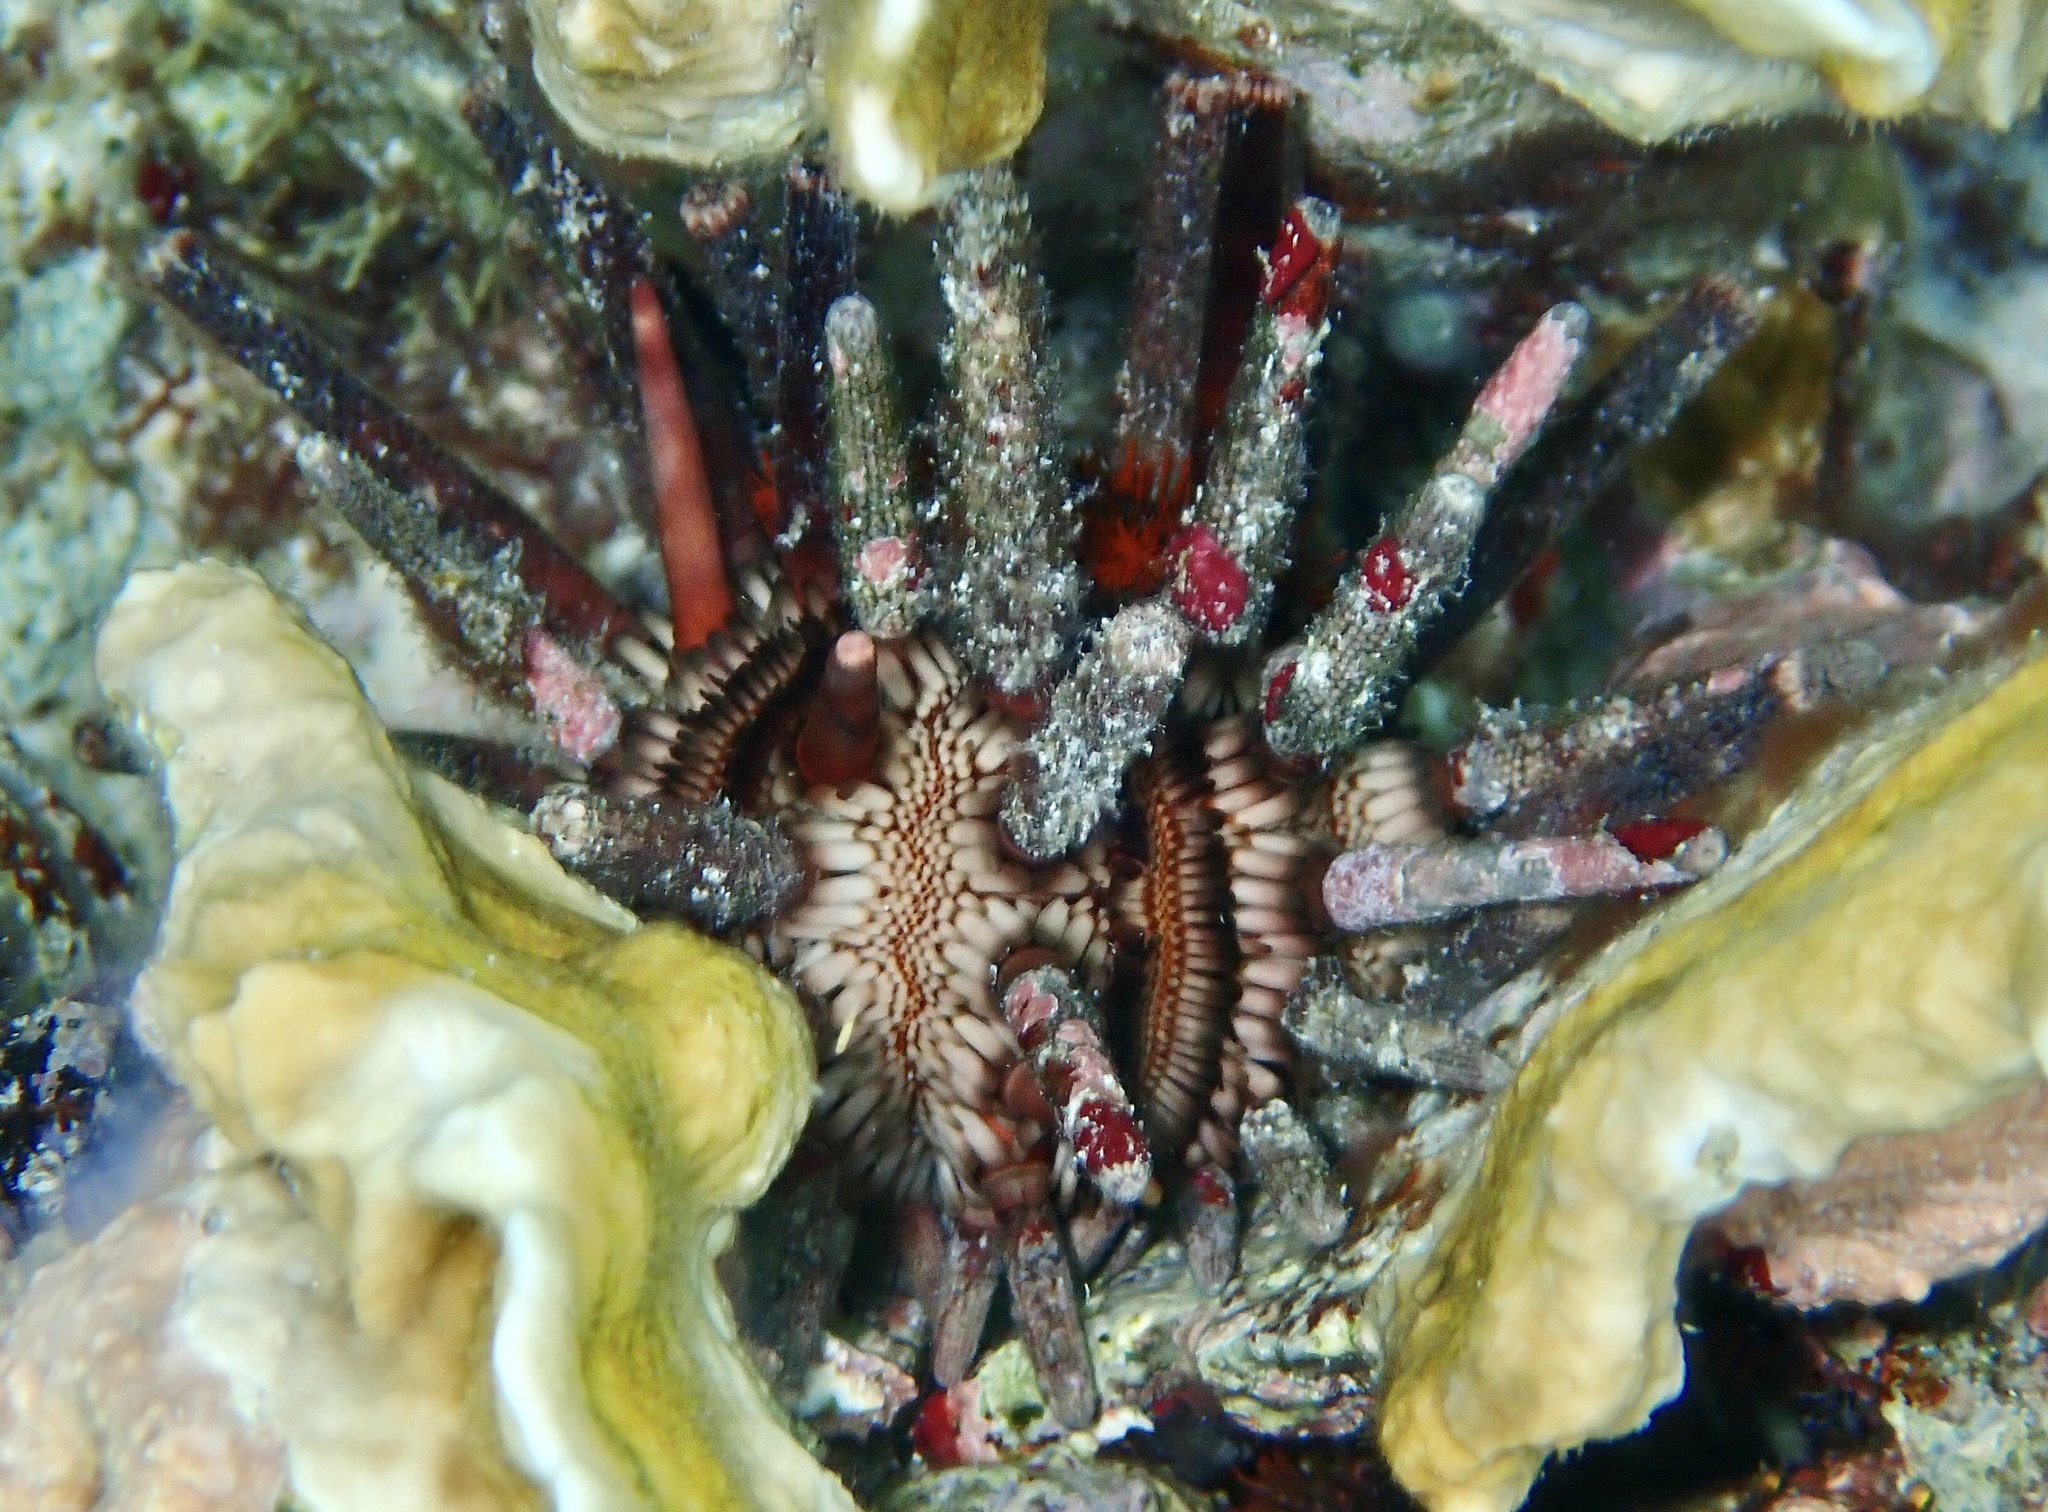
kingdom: Animalia
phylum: Echinodermata
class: Echinoidea
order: Cidaroida
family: Cidaridae
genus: Eucidaris
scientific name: Eucidaris tribuloides
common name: Slate pencil urchin
